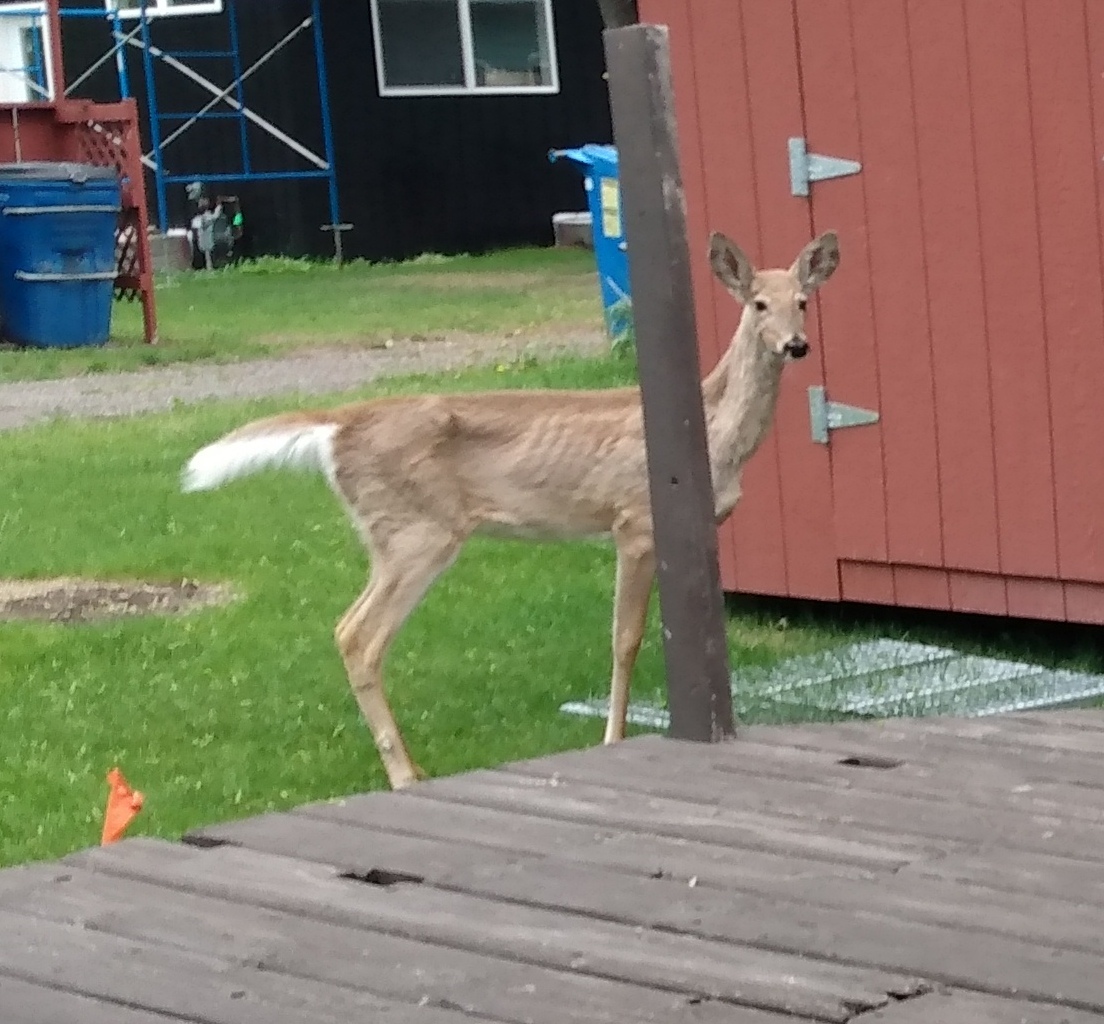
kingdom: Animalia
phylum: Chordata
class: Mammalia
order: Artiodactyla
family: Cervidae
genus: Odocoileus
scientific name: Odocoileus virginianus
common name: White-tailed deer
